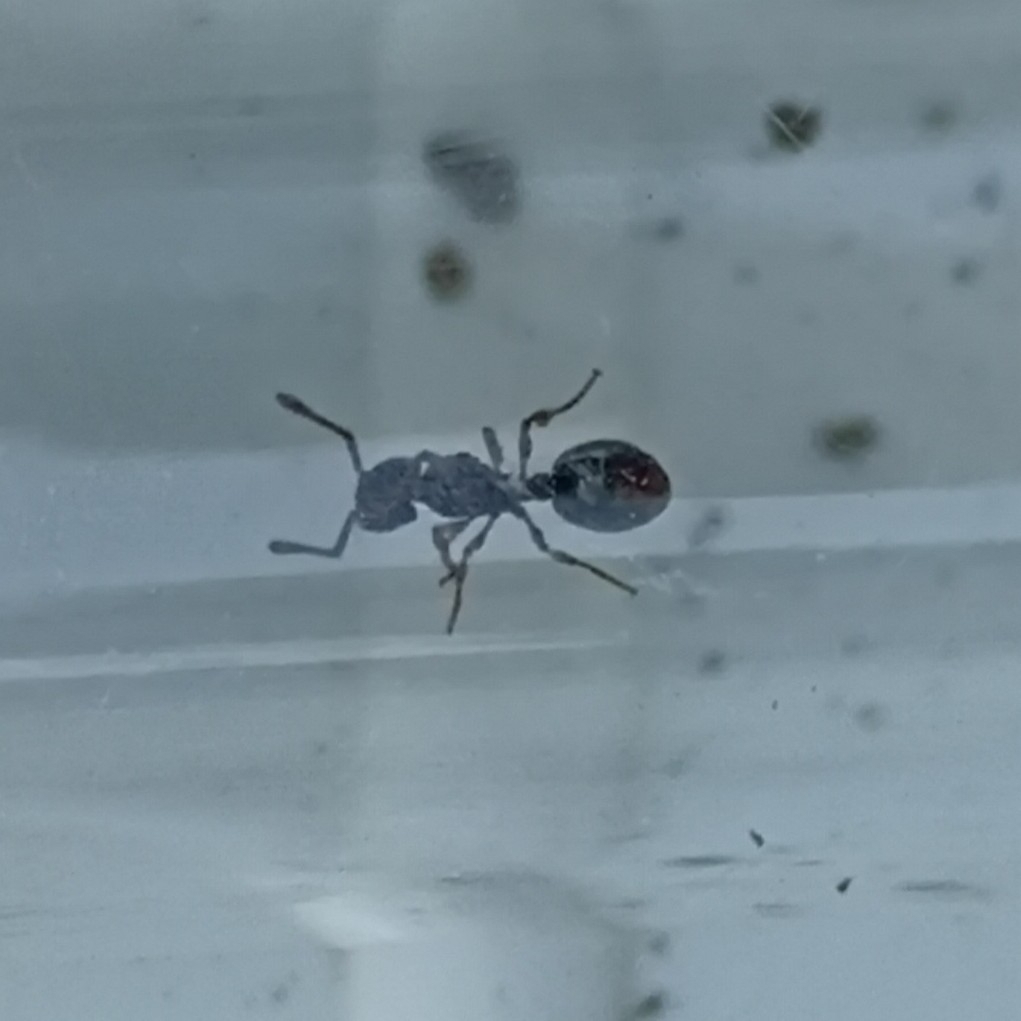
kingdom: Animalia
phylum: Arthropoda
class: Insecta
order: Hymenoptera
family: Formicidae
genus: Myrmecina
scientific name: Myrmecina graminicola
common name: Grass ant
